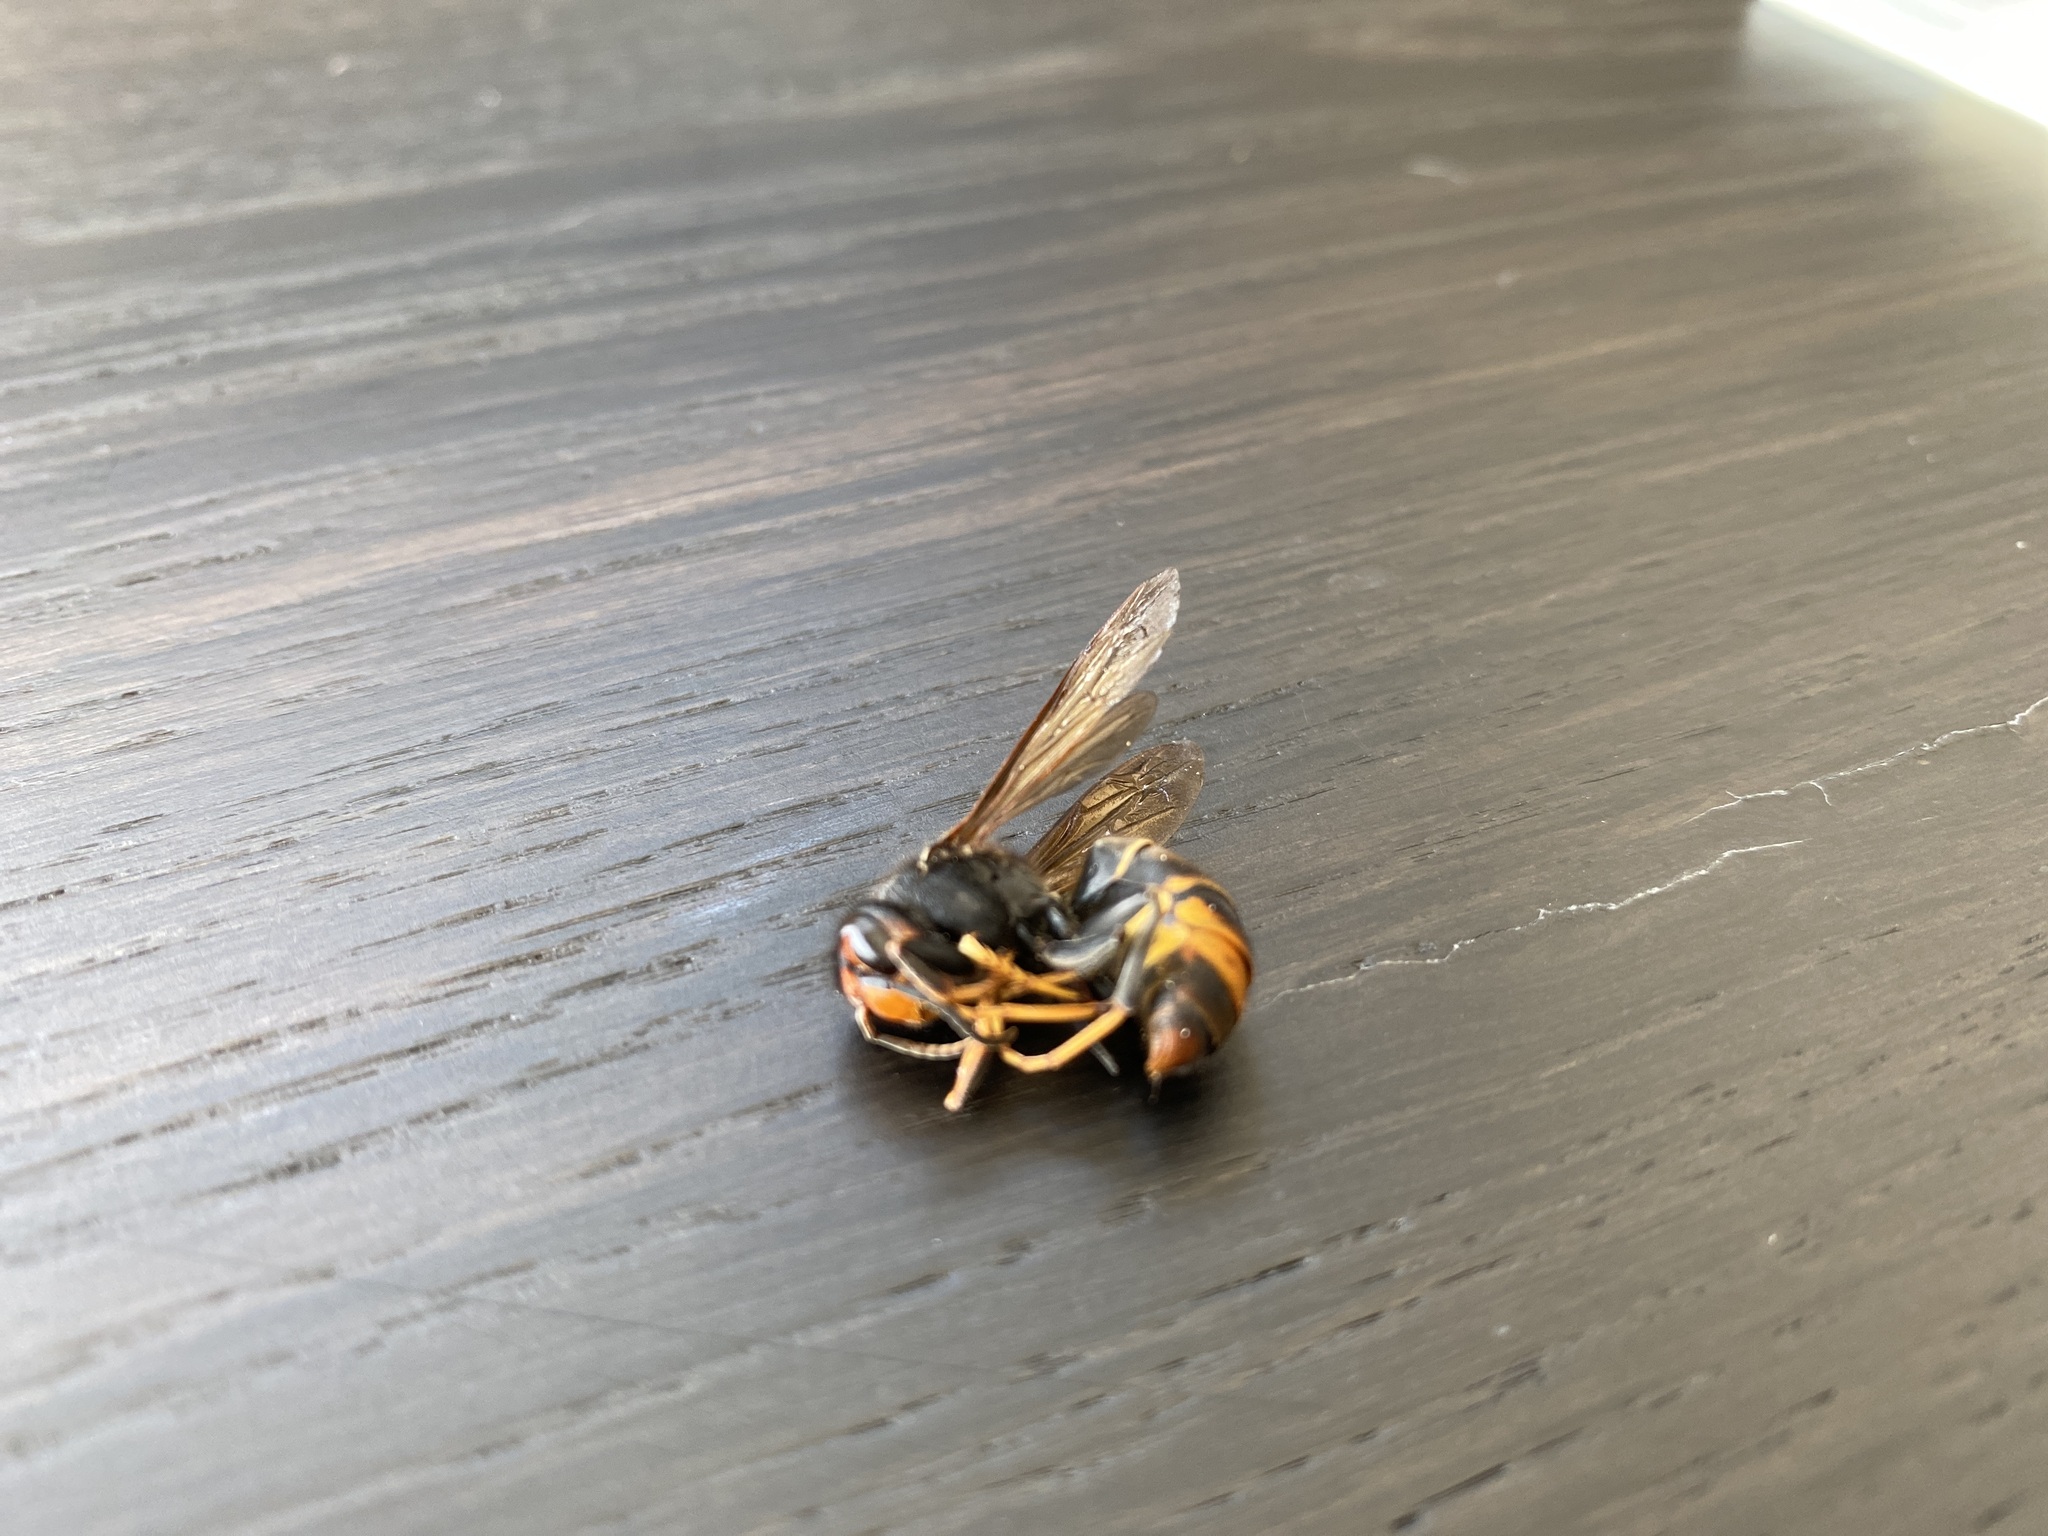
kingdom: Animalia
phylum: Arthropoda
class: Insecta
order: Hymenoptera
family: Vespidae
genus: Vespa
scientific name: Vespa velutina
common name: Asian hornet
